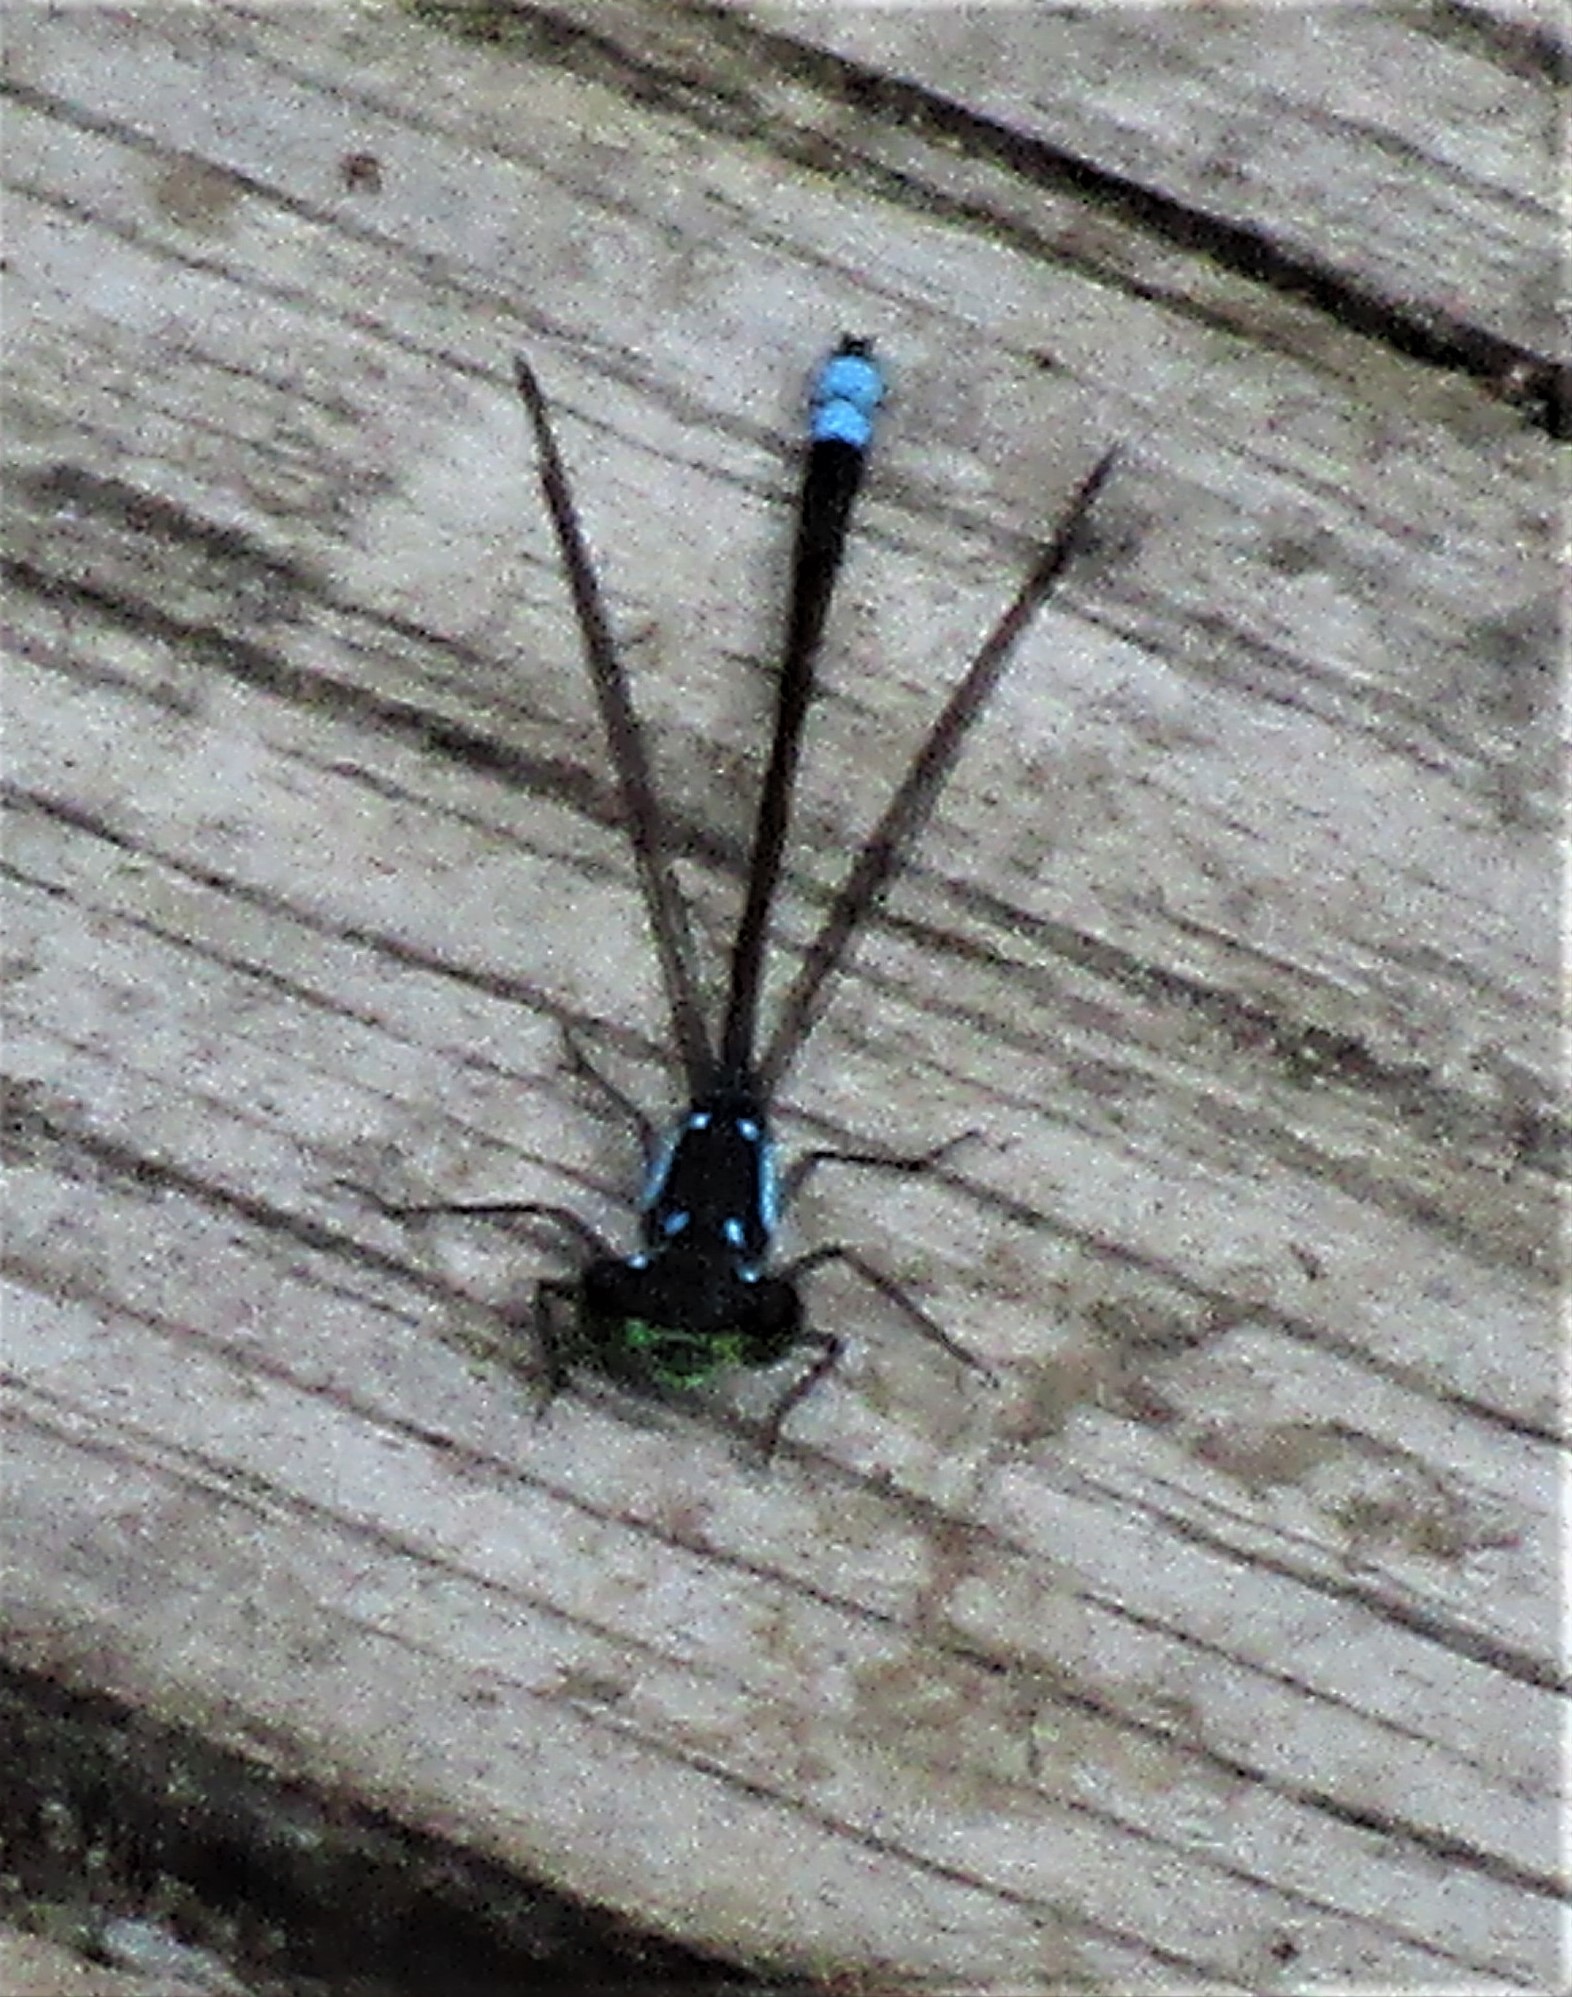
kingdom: Animalia
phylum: Arthropoda
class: Insecta
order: Odonata
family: Coenagrionidae
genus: Ischnura
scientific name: Ischnura cervula
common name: Pacific forktail
